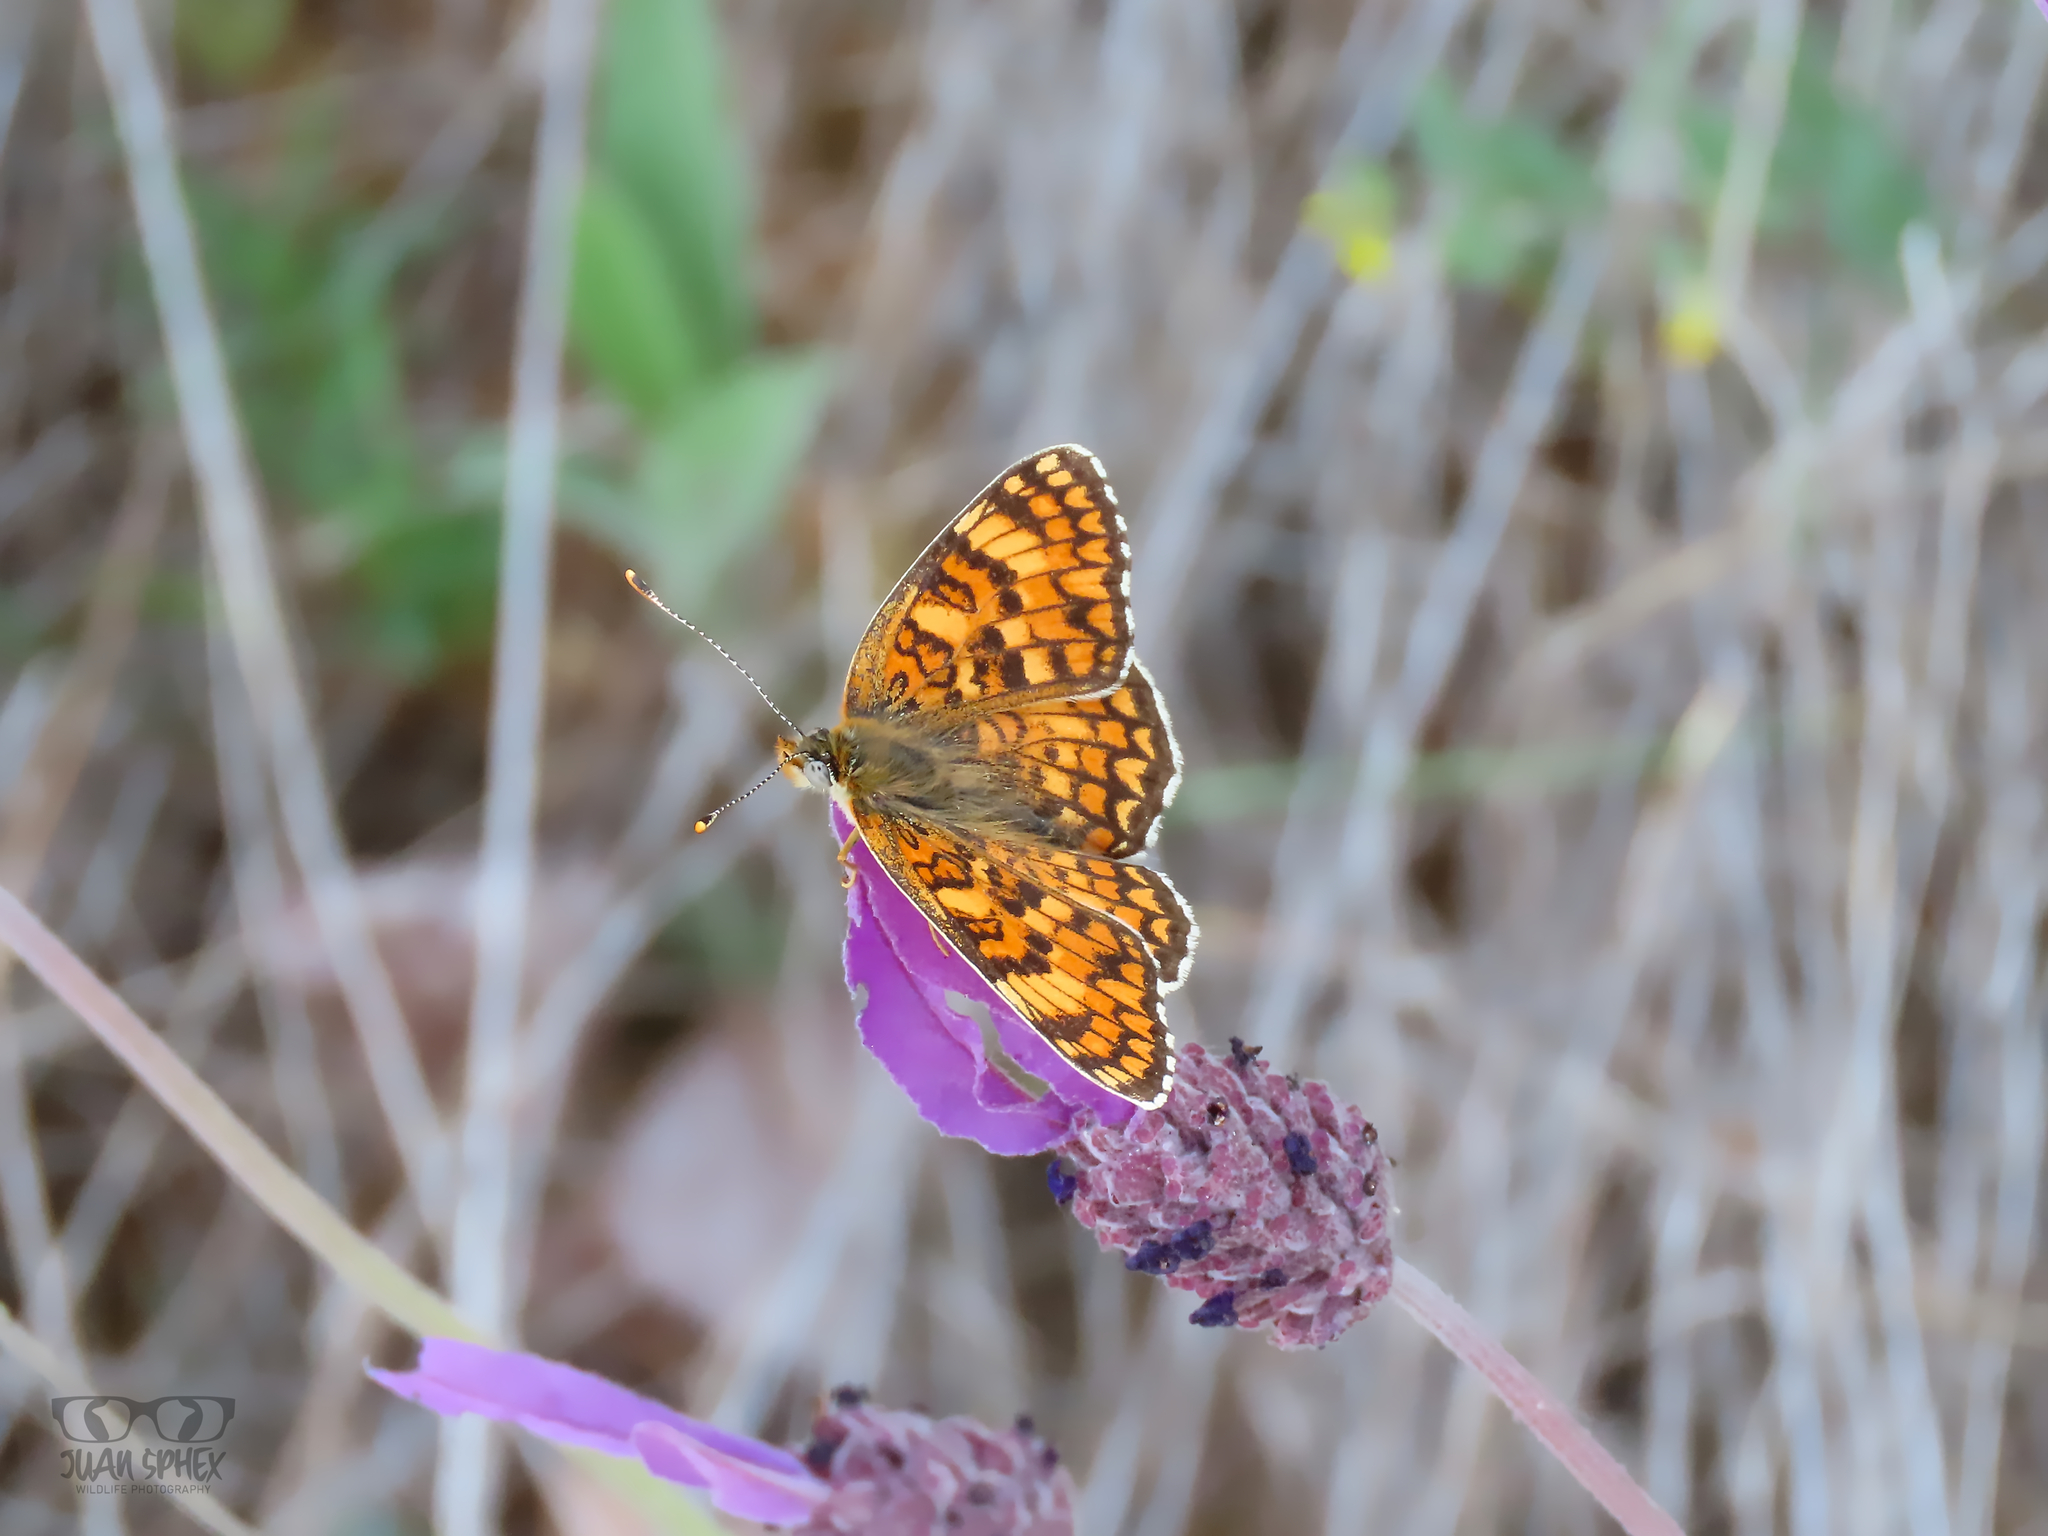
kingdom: Plantae
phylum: Tracheophyta
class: Magnoliopsida
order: Lamiales
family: Lamiaceae
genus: Lavandula
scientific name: Lavandula pedunculata
